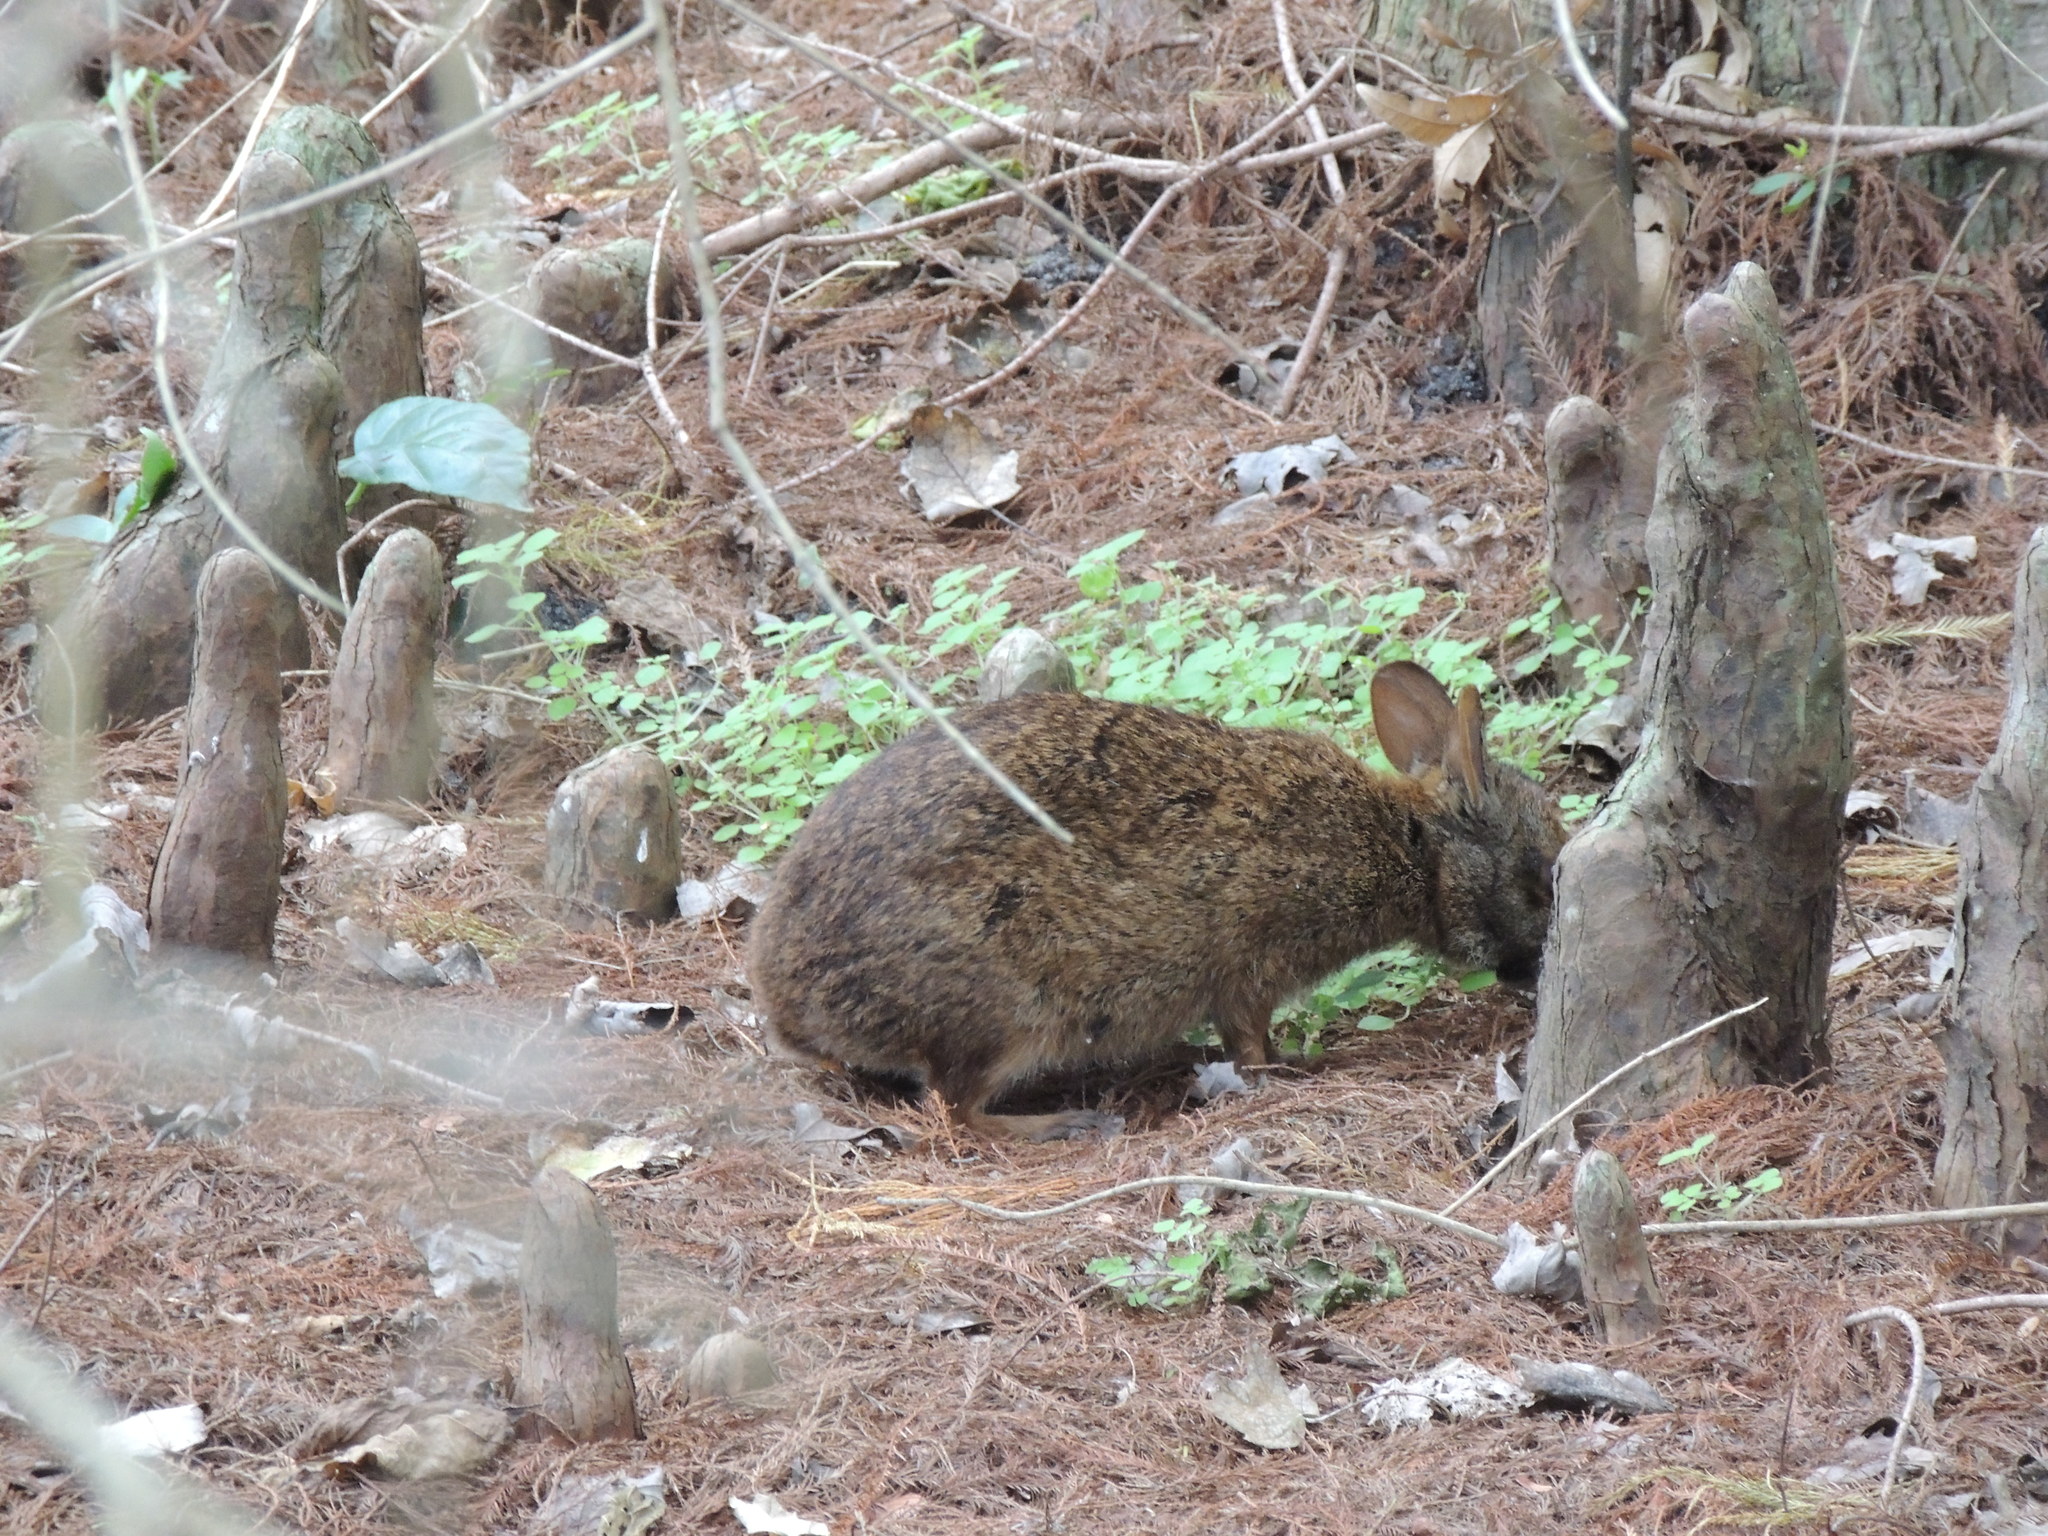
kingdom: Animalia
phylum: Chordata
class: Mammalia
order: Lagomorpha
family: Leporidae
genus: Sylvilagus
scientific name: Sylvilagus palustris
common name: Marsh rabbit
